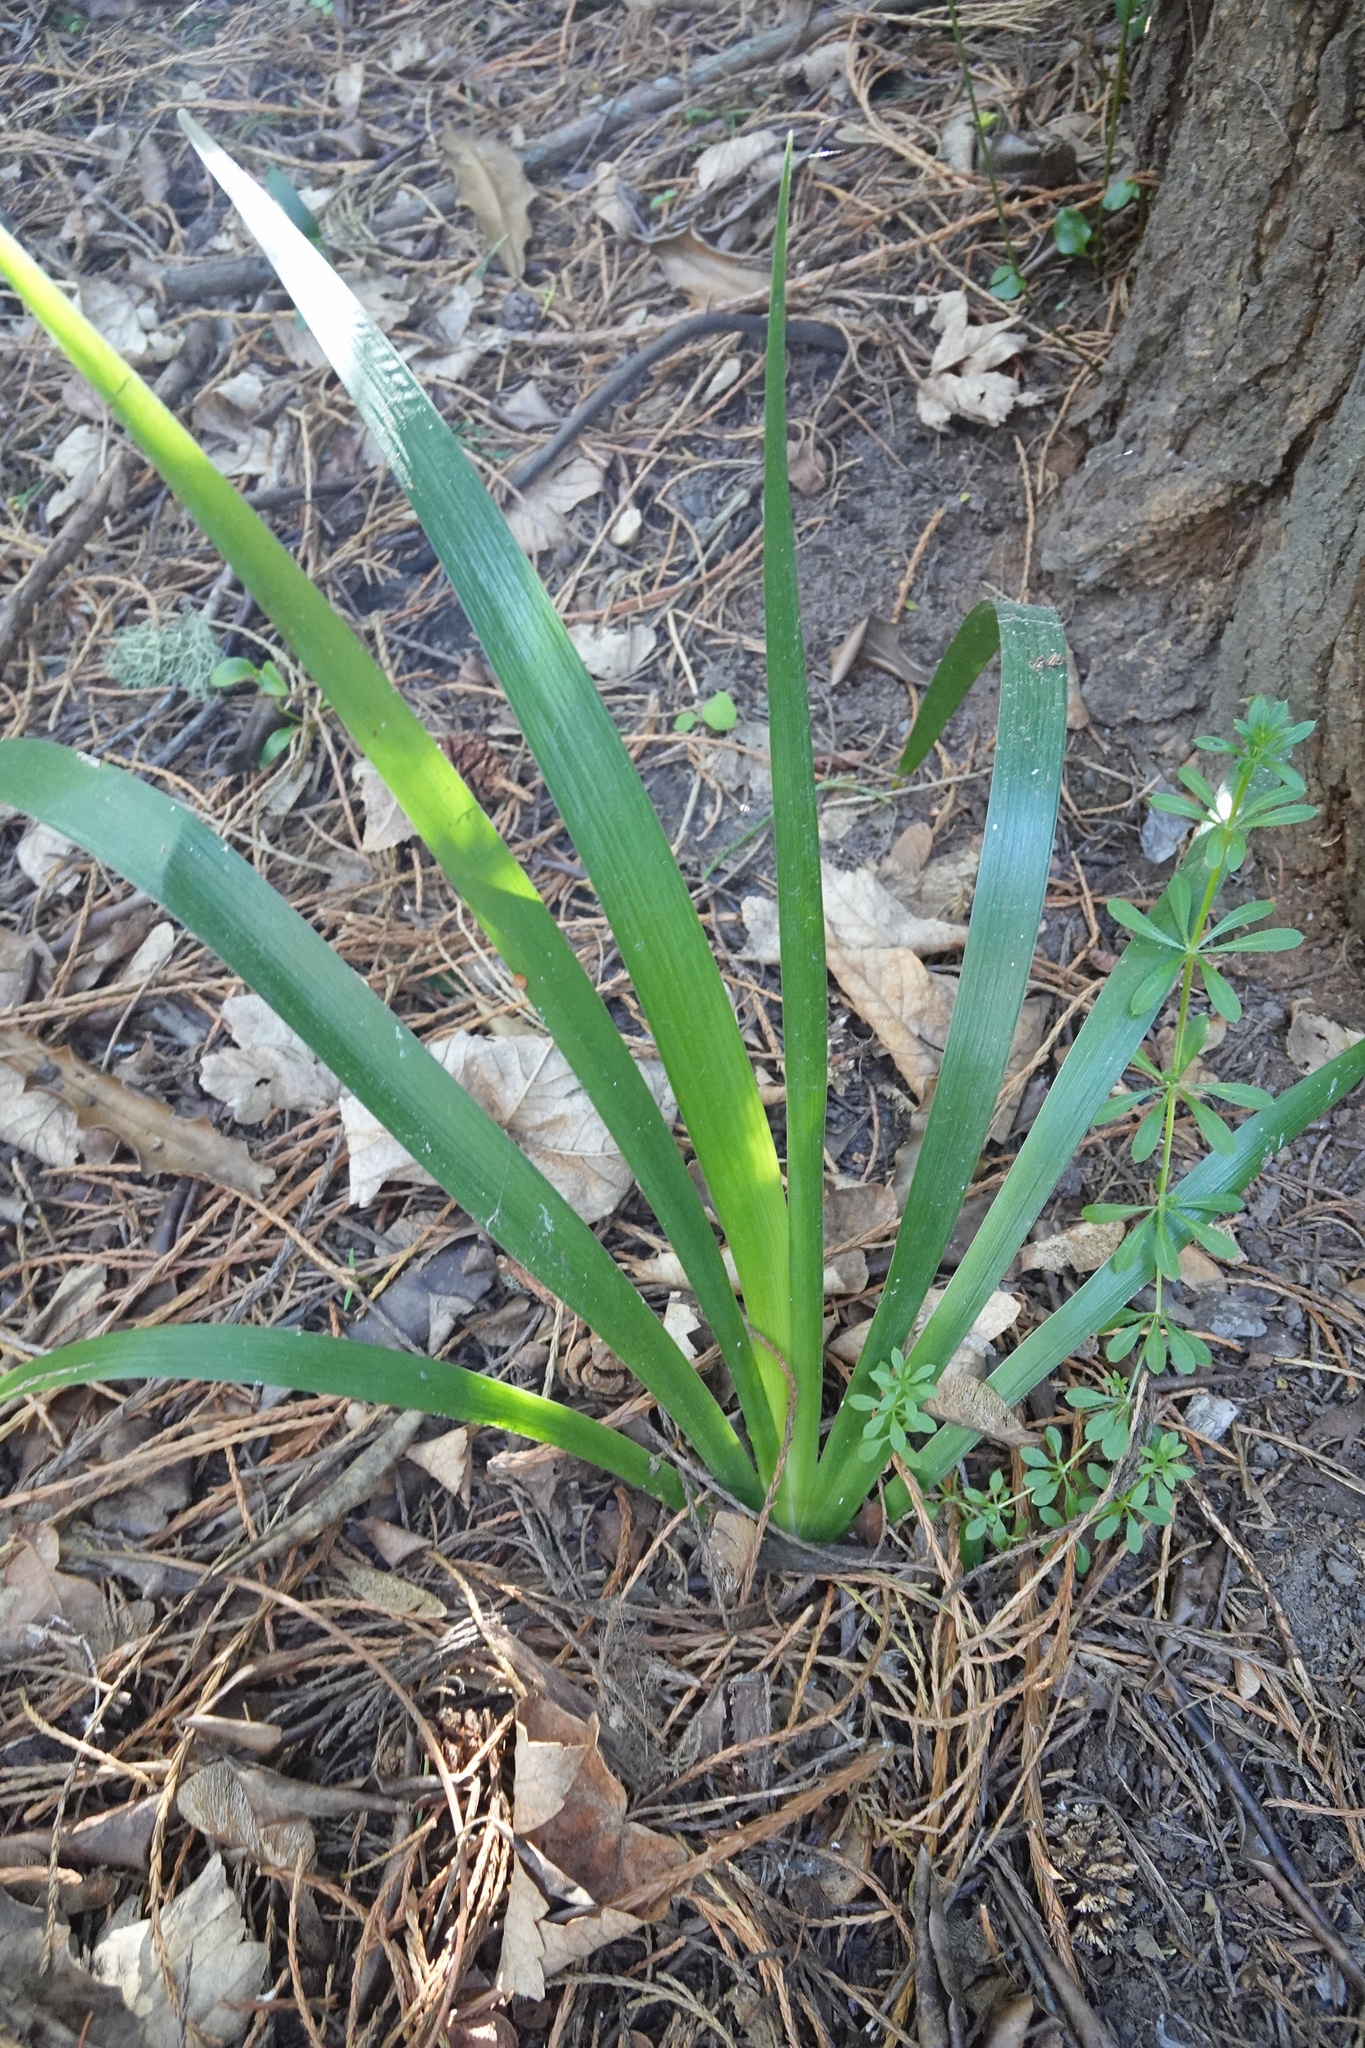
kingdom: Plantae
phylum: Tracheophyta
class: Liliopsida
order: Asparagales
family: Iridaceae
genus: Iris
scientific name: Iris foetidissima
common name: Stinking iris
